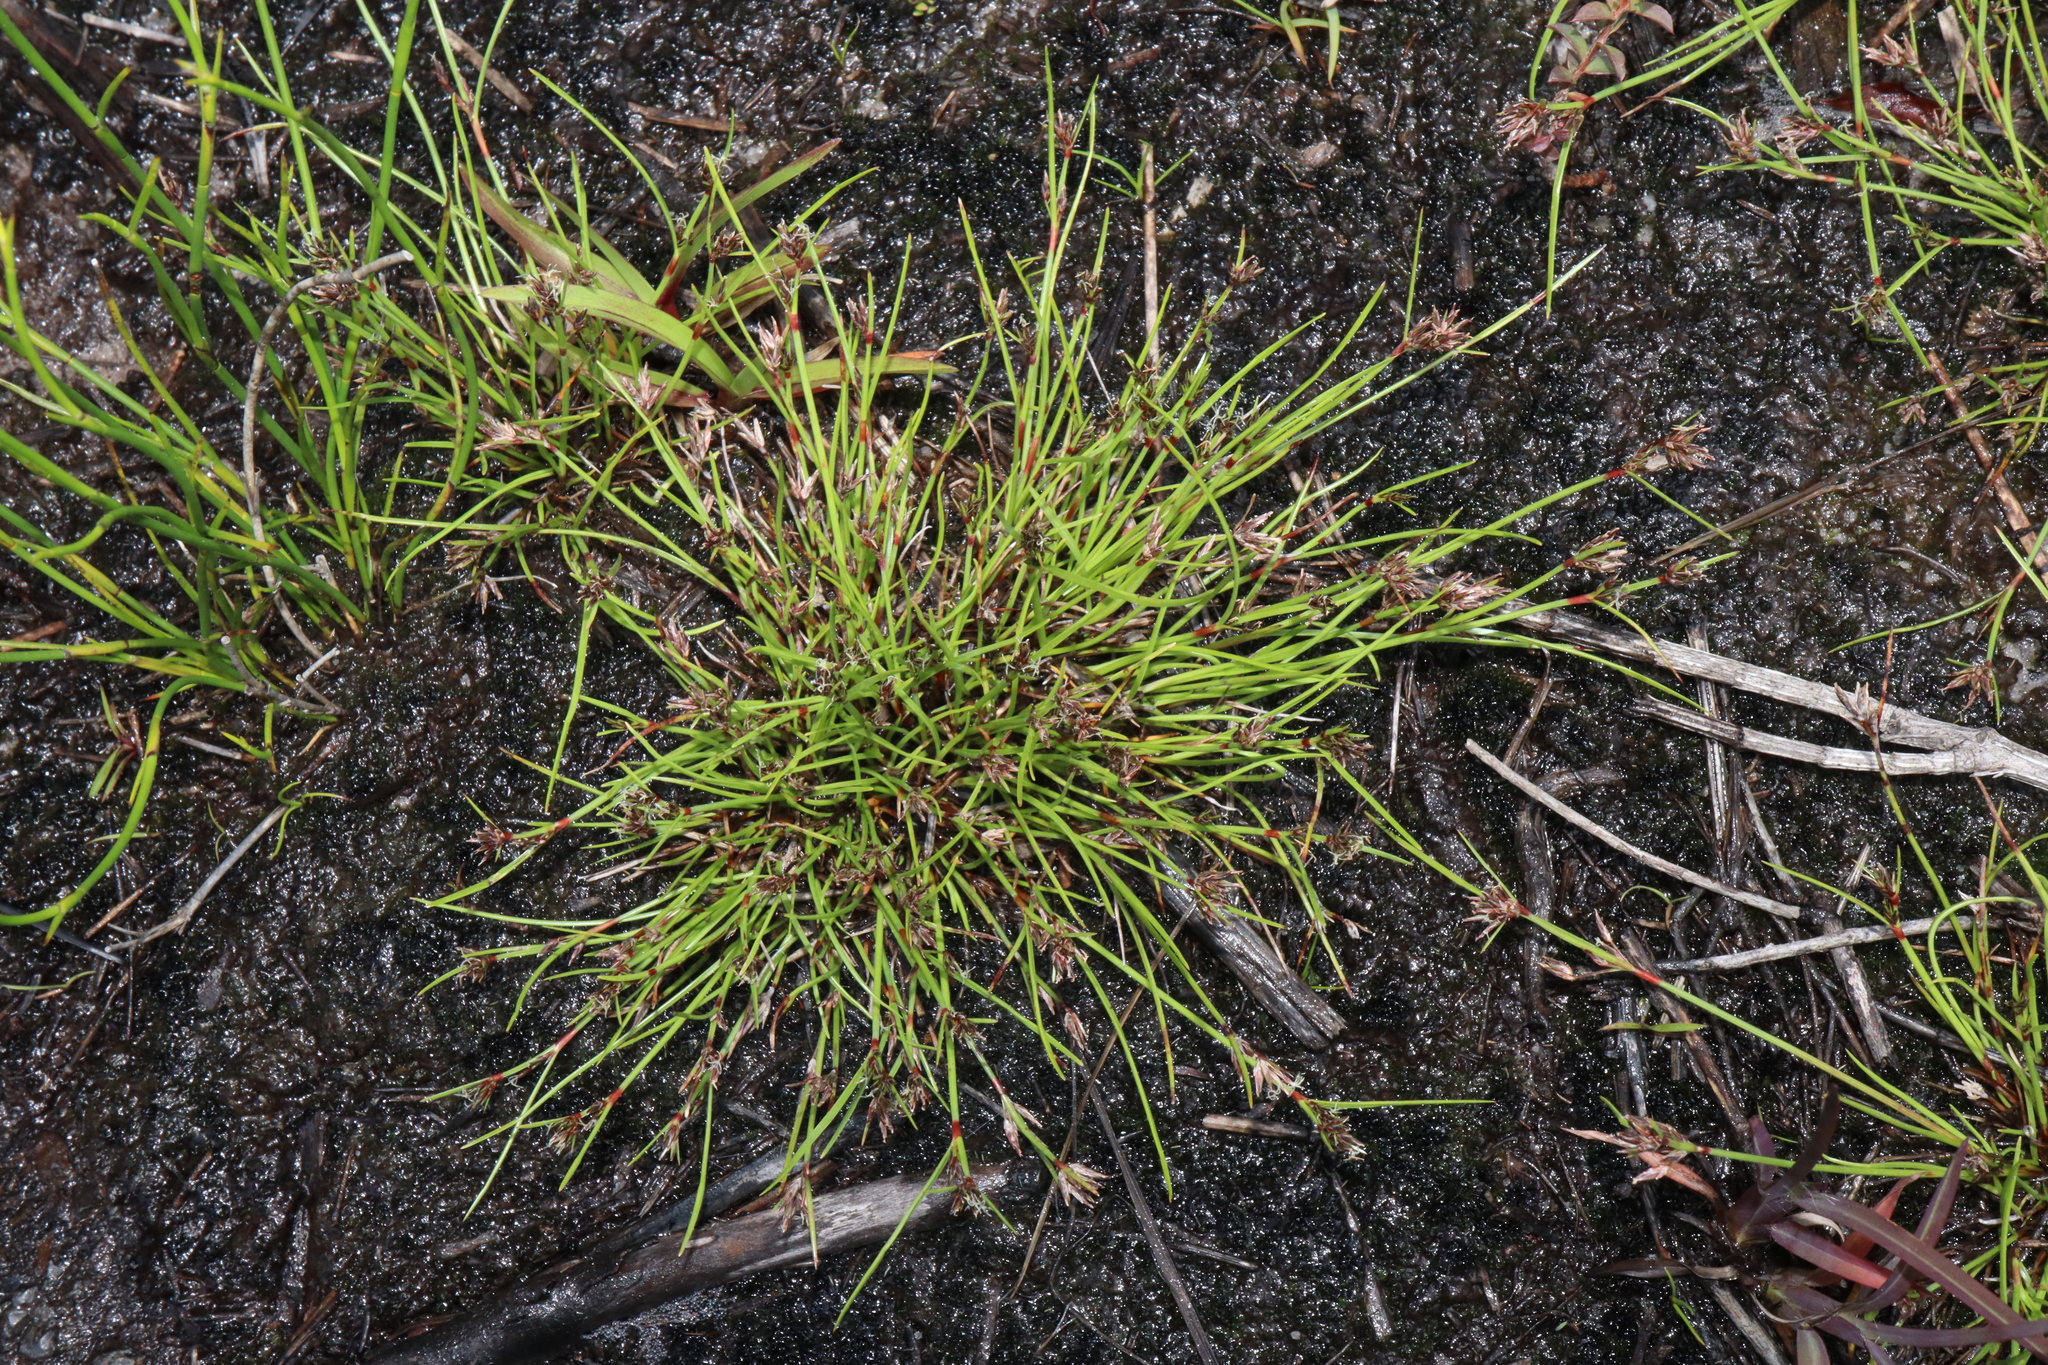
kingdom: Plantae
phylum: Tracheophyta
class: Liliopsida
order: Poales
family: Cyperaceae
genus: Schoenus
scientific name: Schoenus apogon
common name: Smooth bogrush
